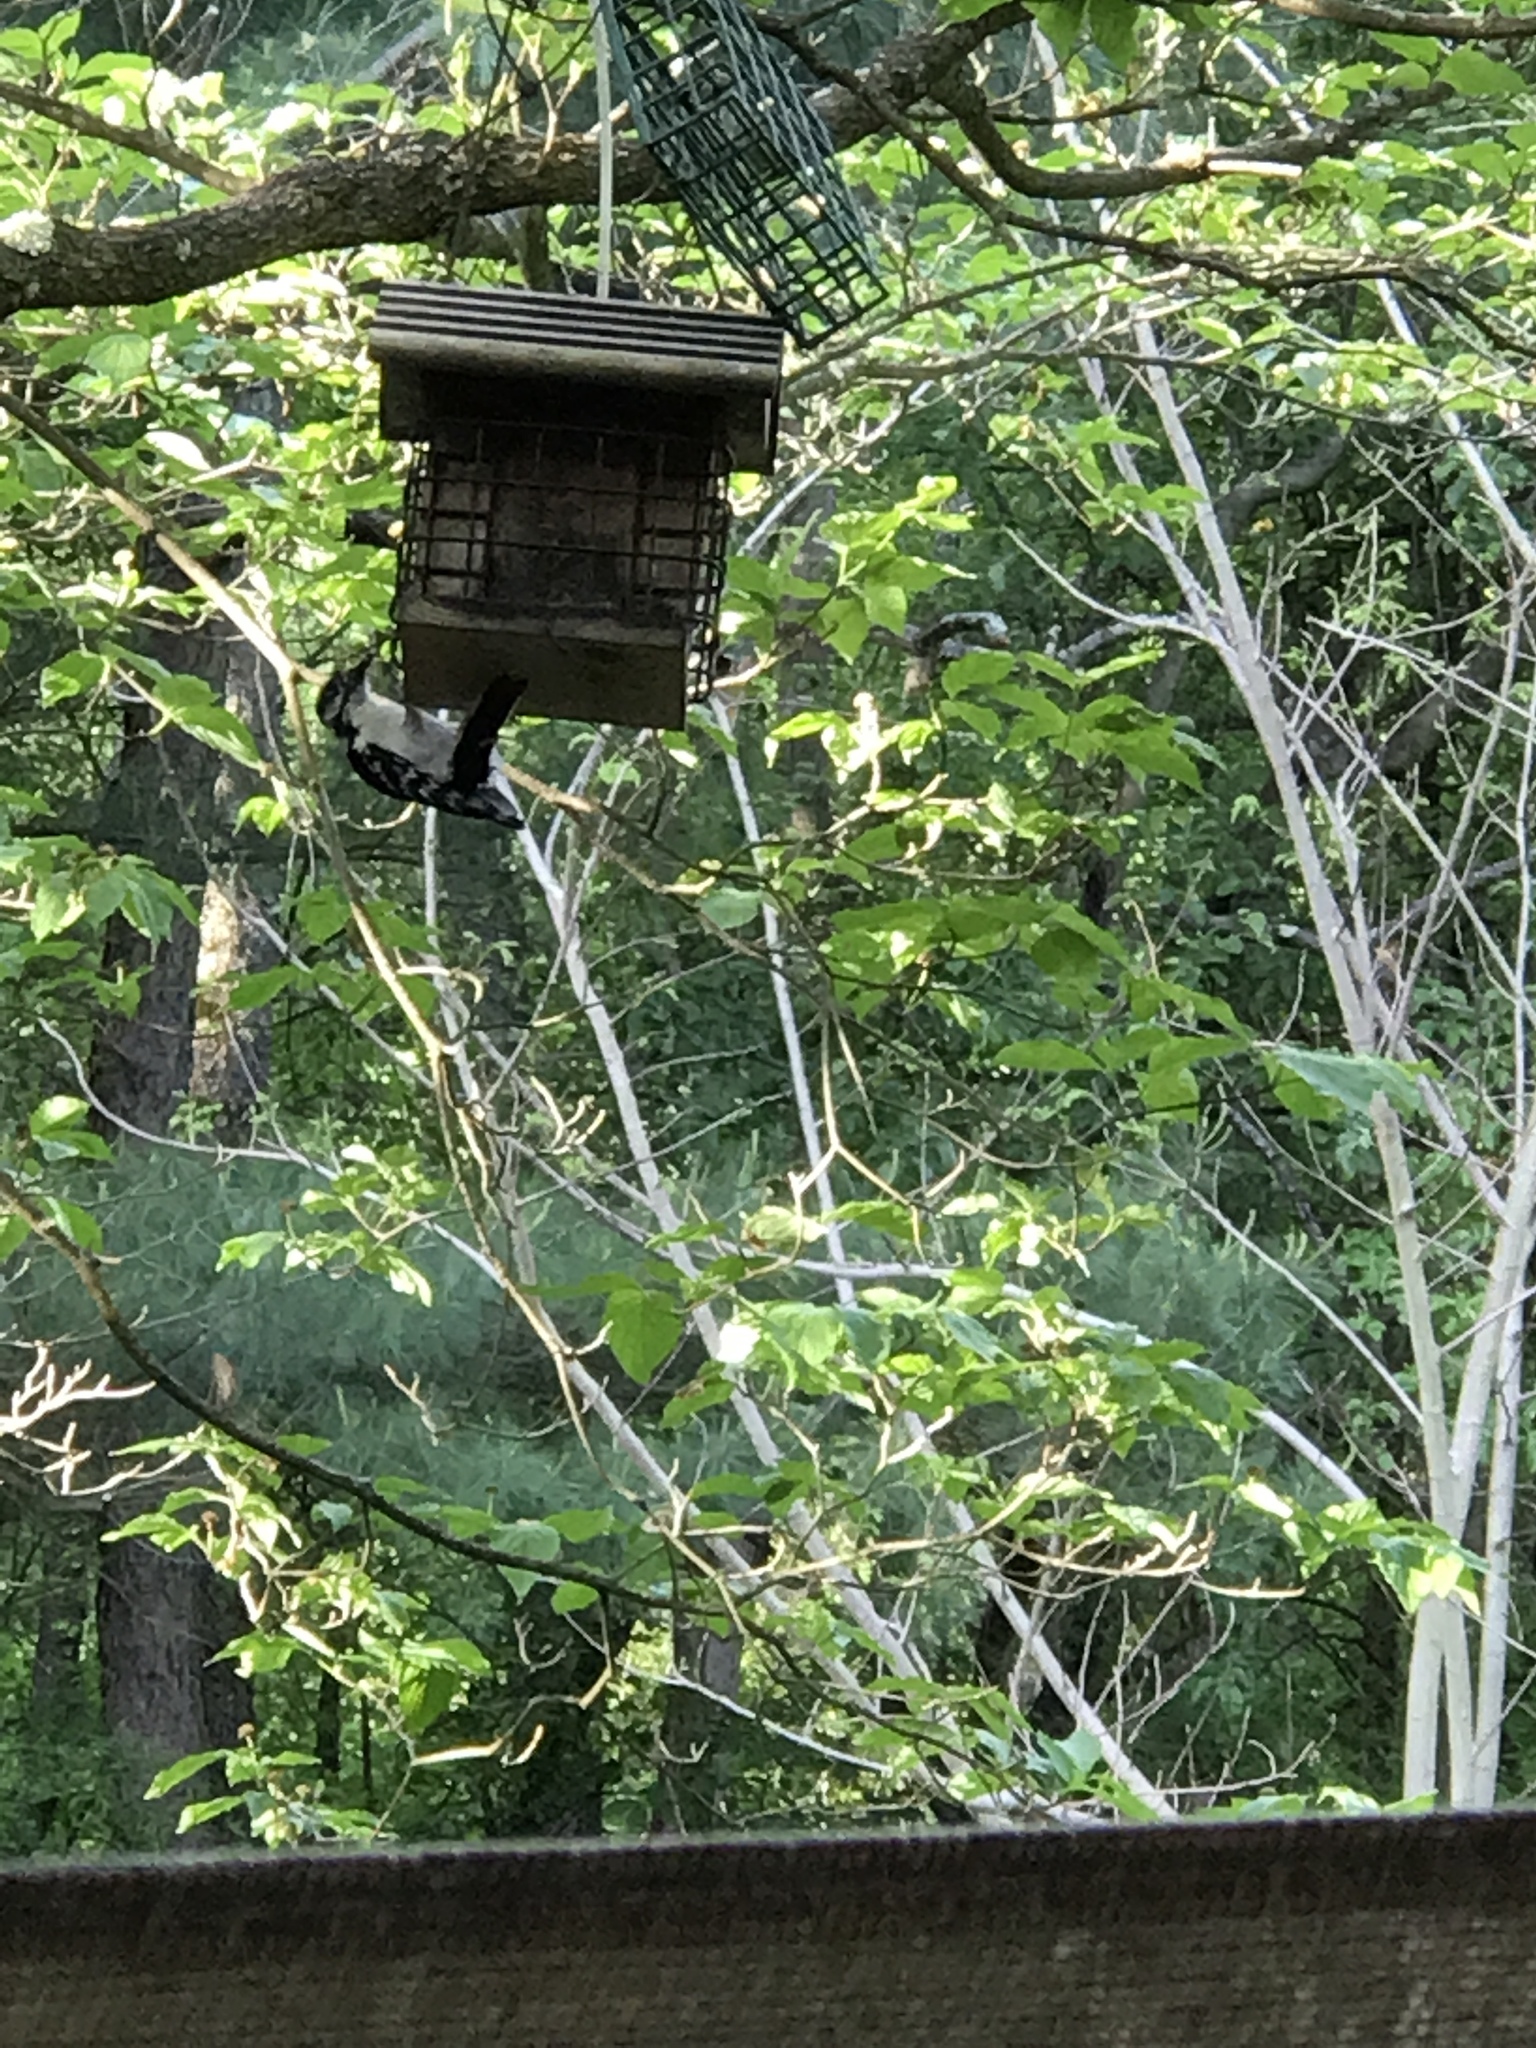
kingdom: Animalia
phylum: Chordata
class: Aves
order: Piciformes
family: Picidae
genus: Dryobates
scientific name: Dryobates pubescens
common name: Downy woodpecker
